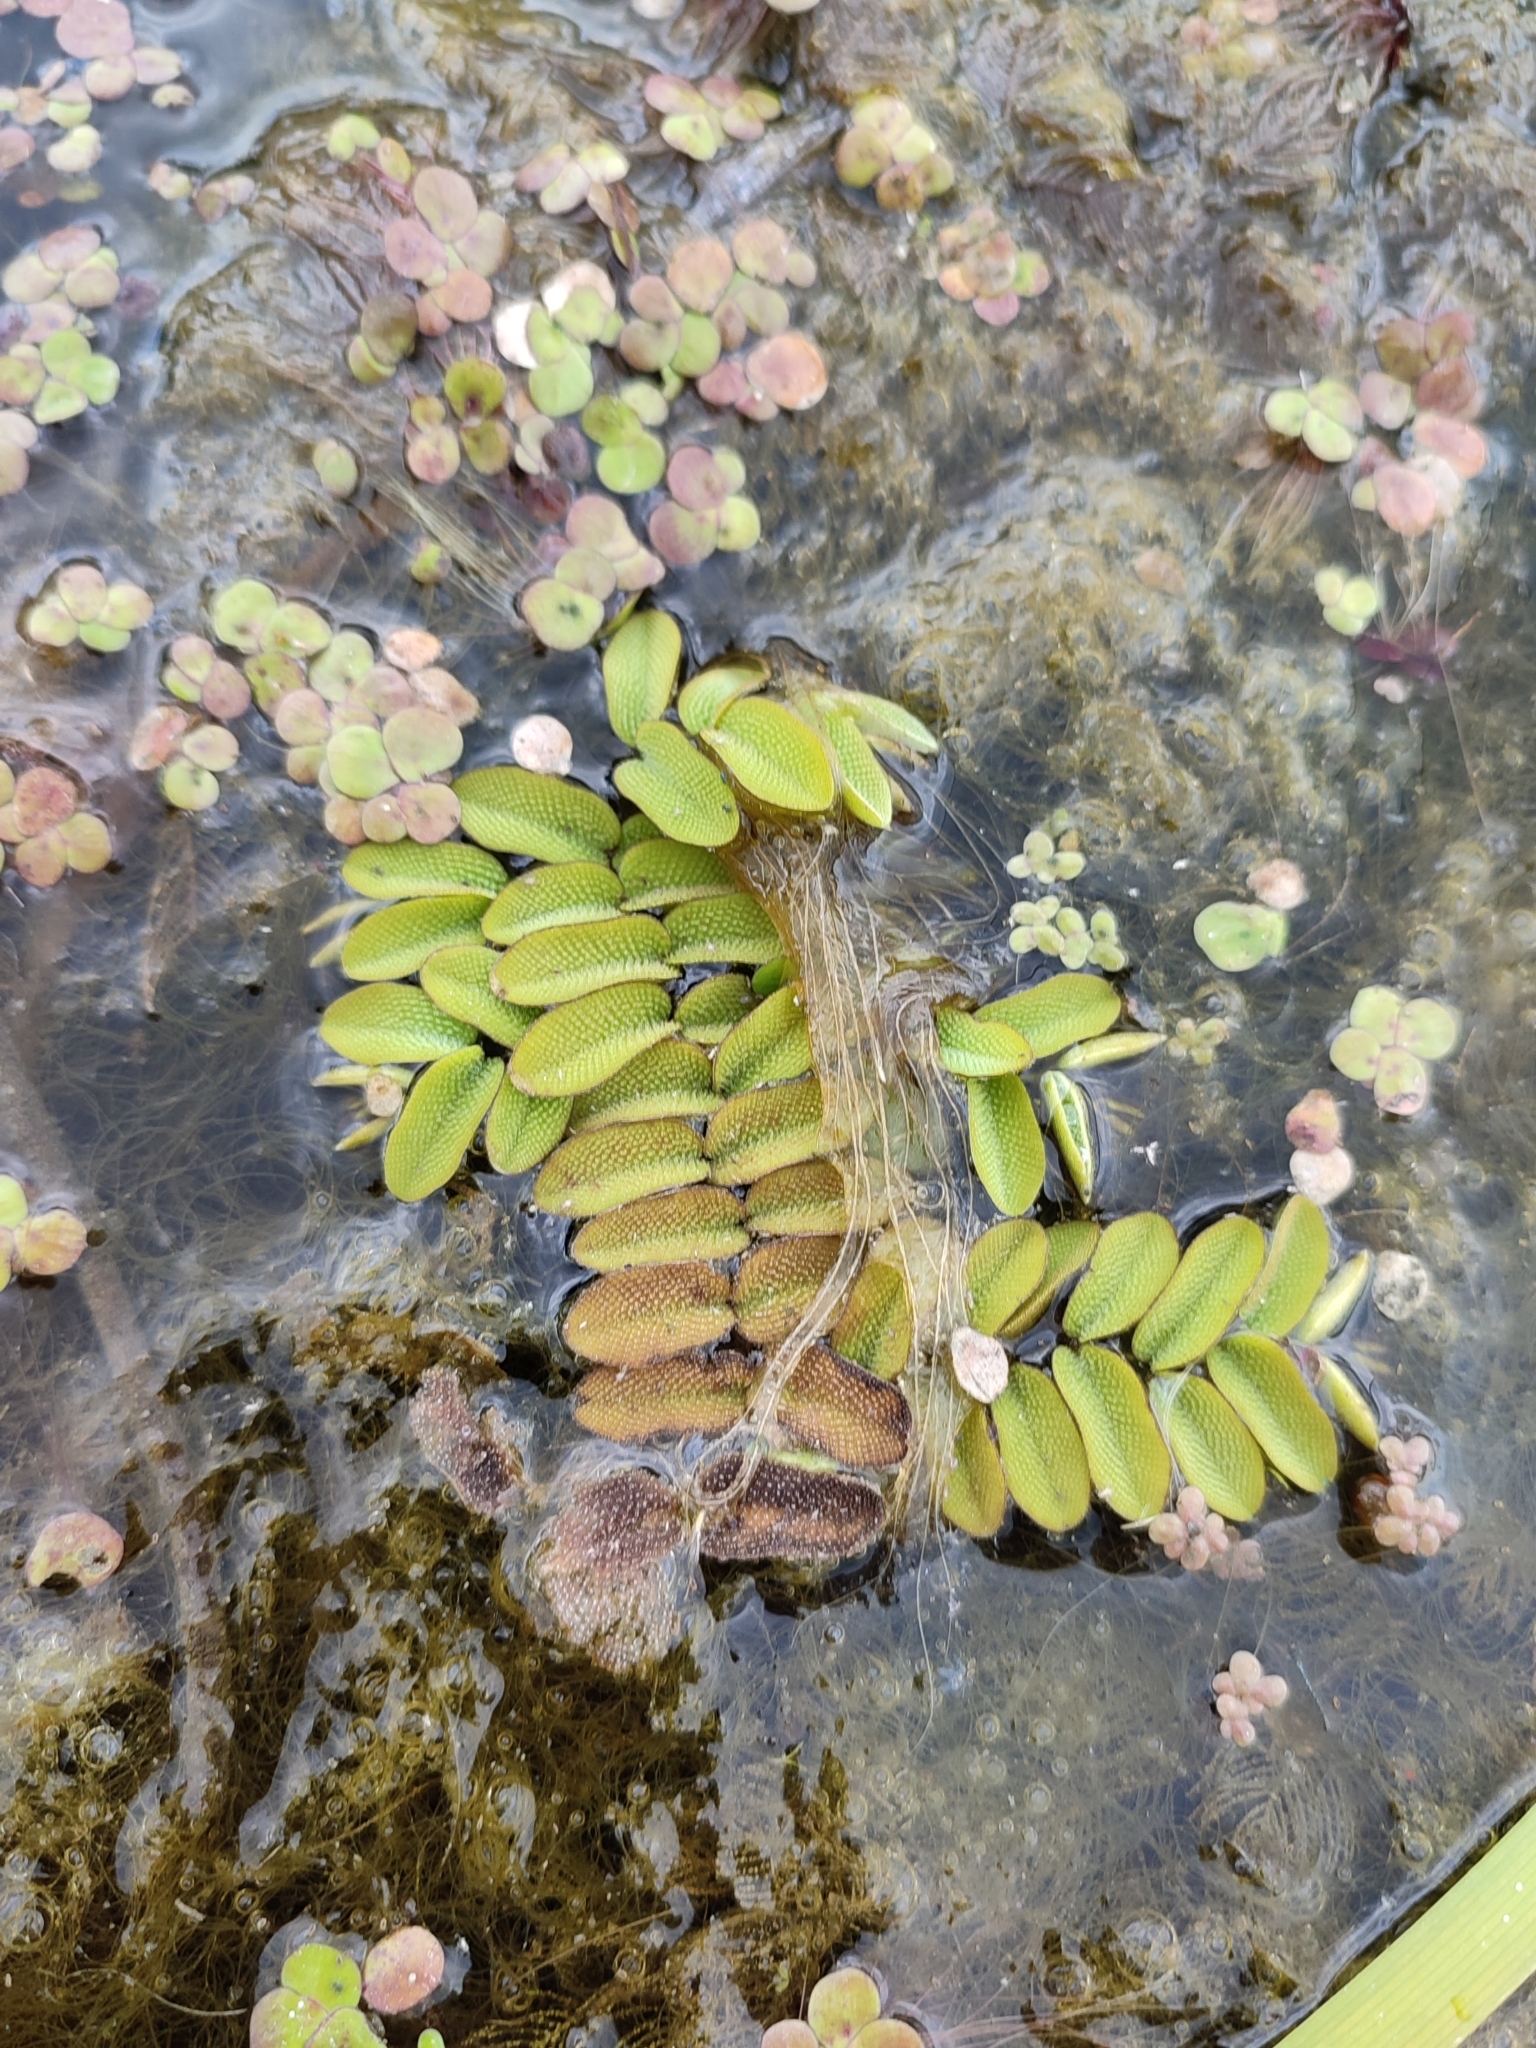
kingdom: Plantae
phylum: Tracheophyta
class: Polypodiopsida
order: Salviniales
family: Salviniaceae
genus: Salvinia
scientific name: Salvinia natans
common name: Floating fern
